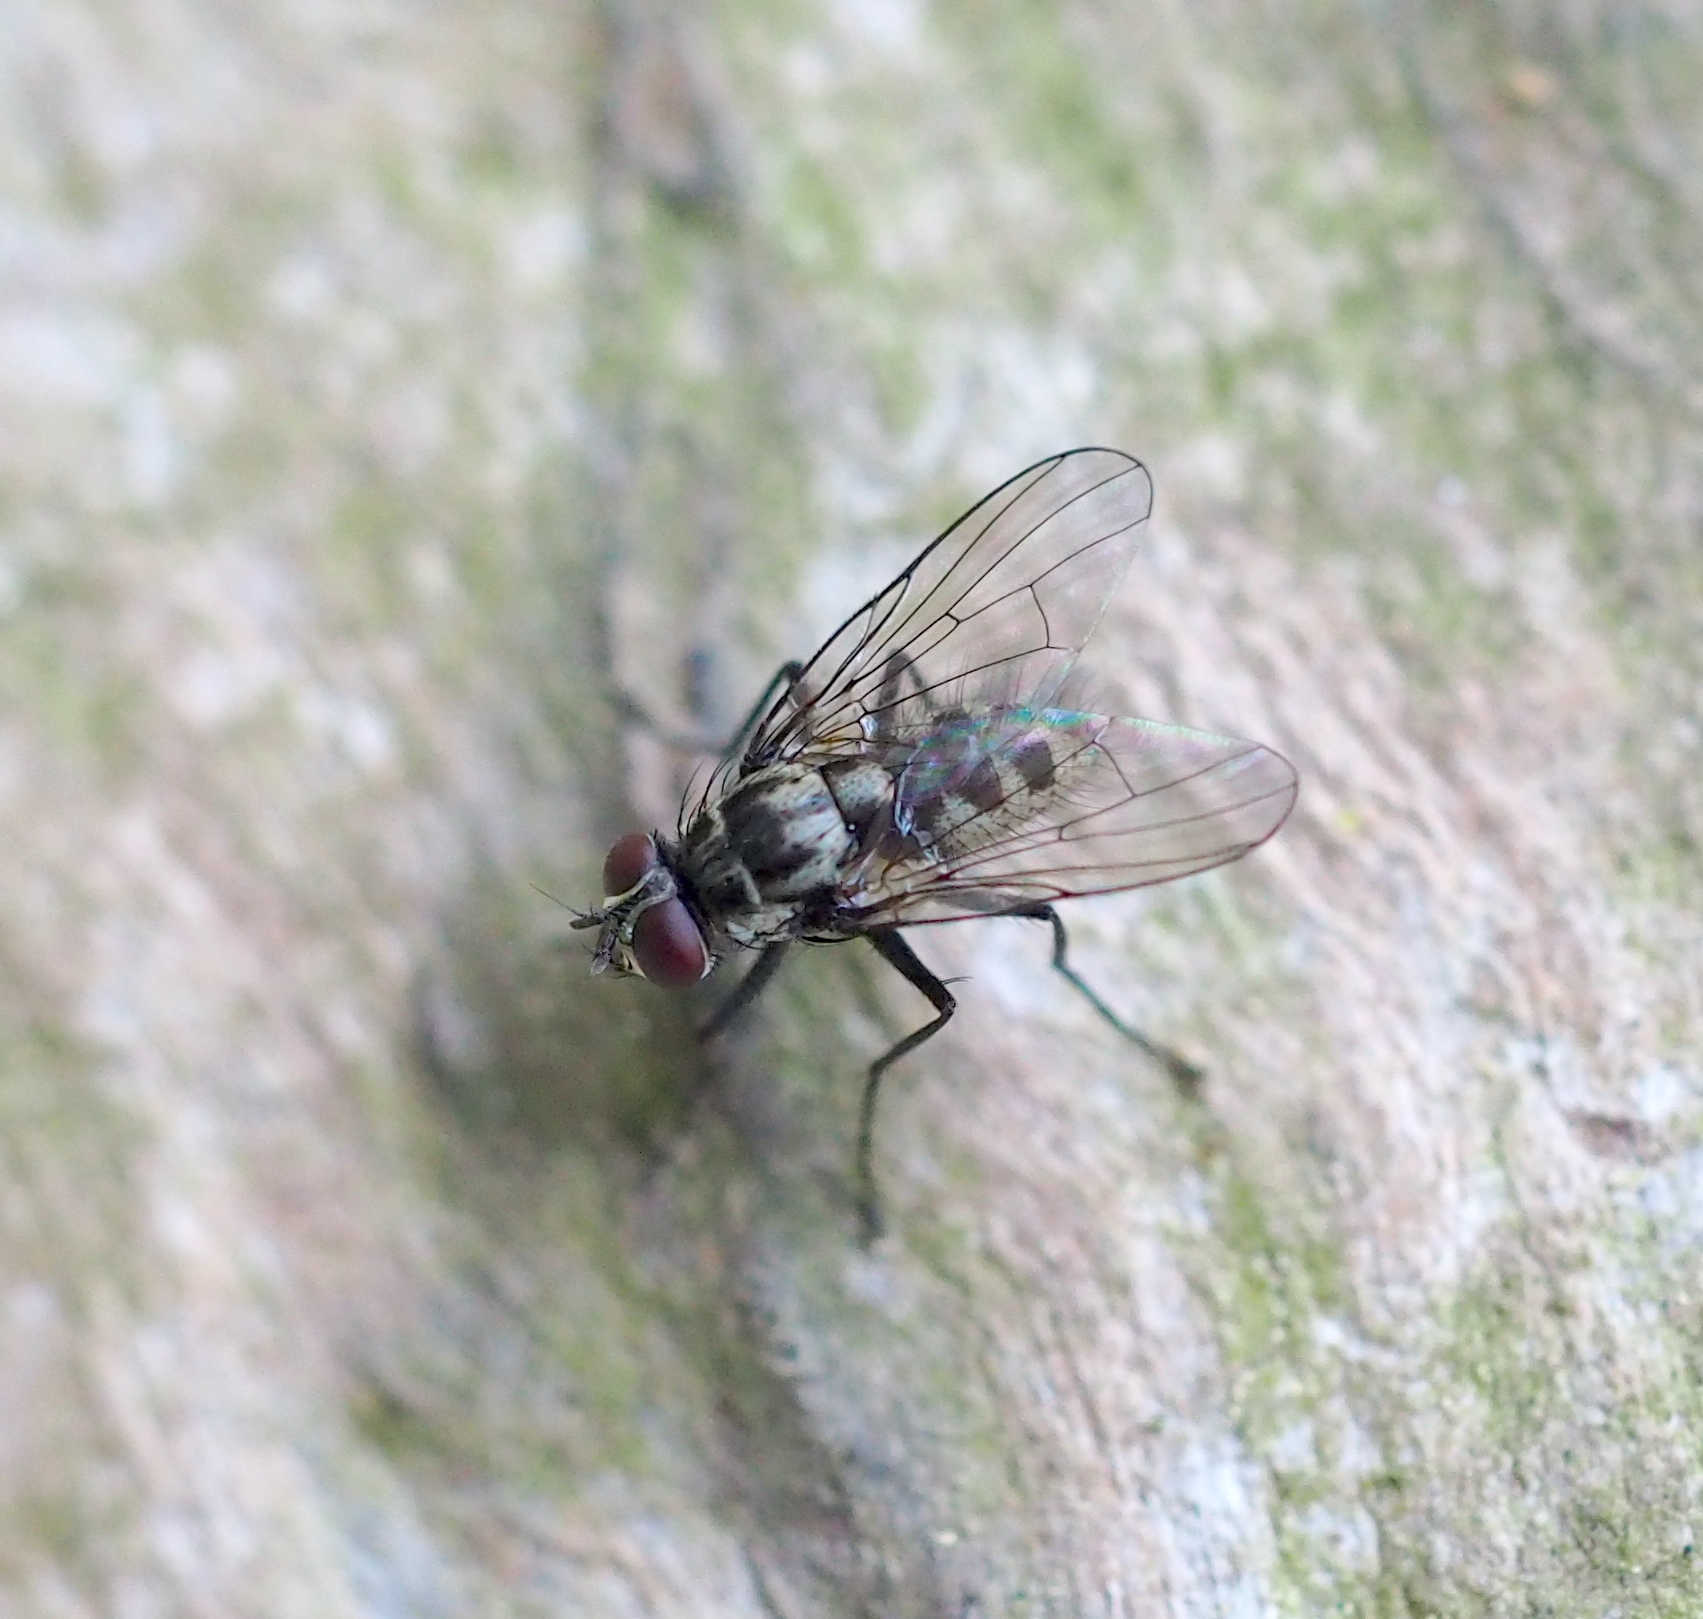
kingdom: Animalia
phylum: Arthropoda
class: Insecta
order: Diptera
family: Muscidae
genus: Limnophora
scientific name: Limnophora maculosa
